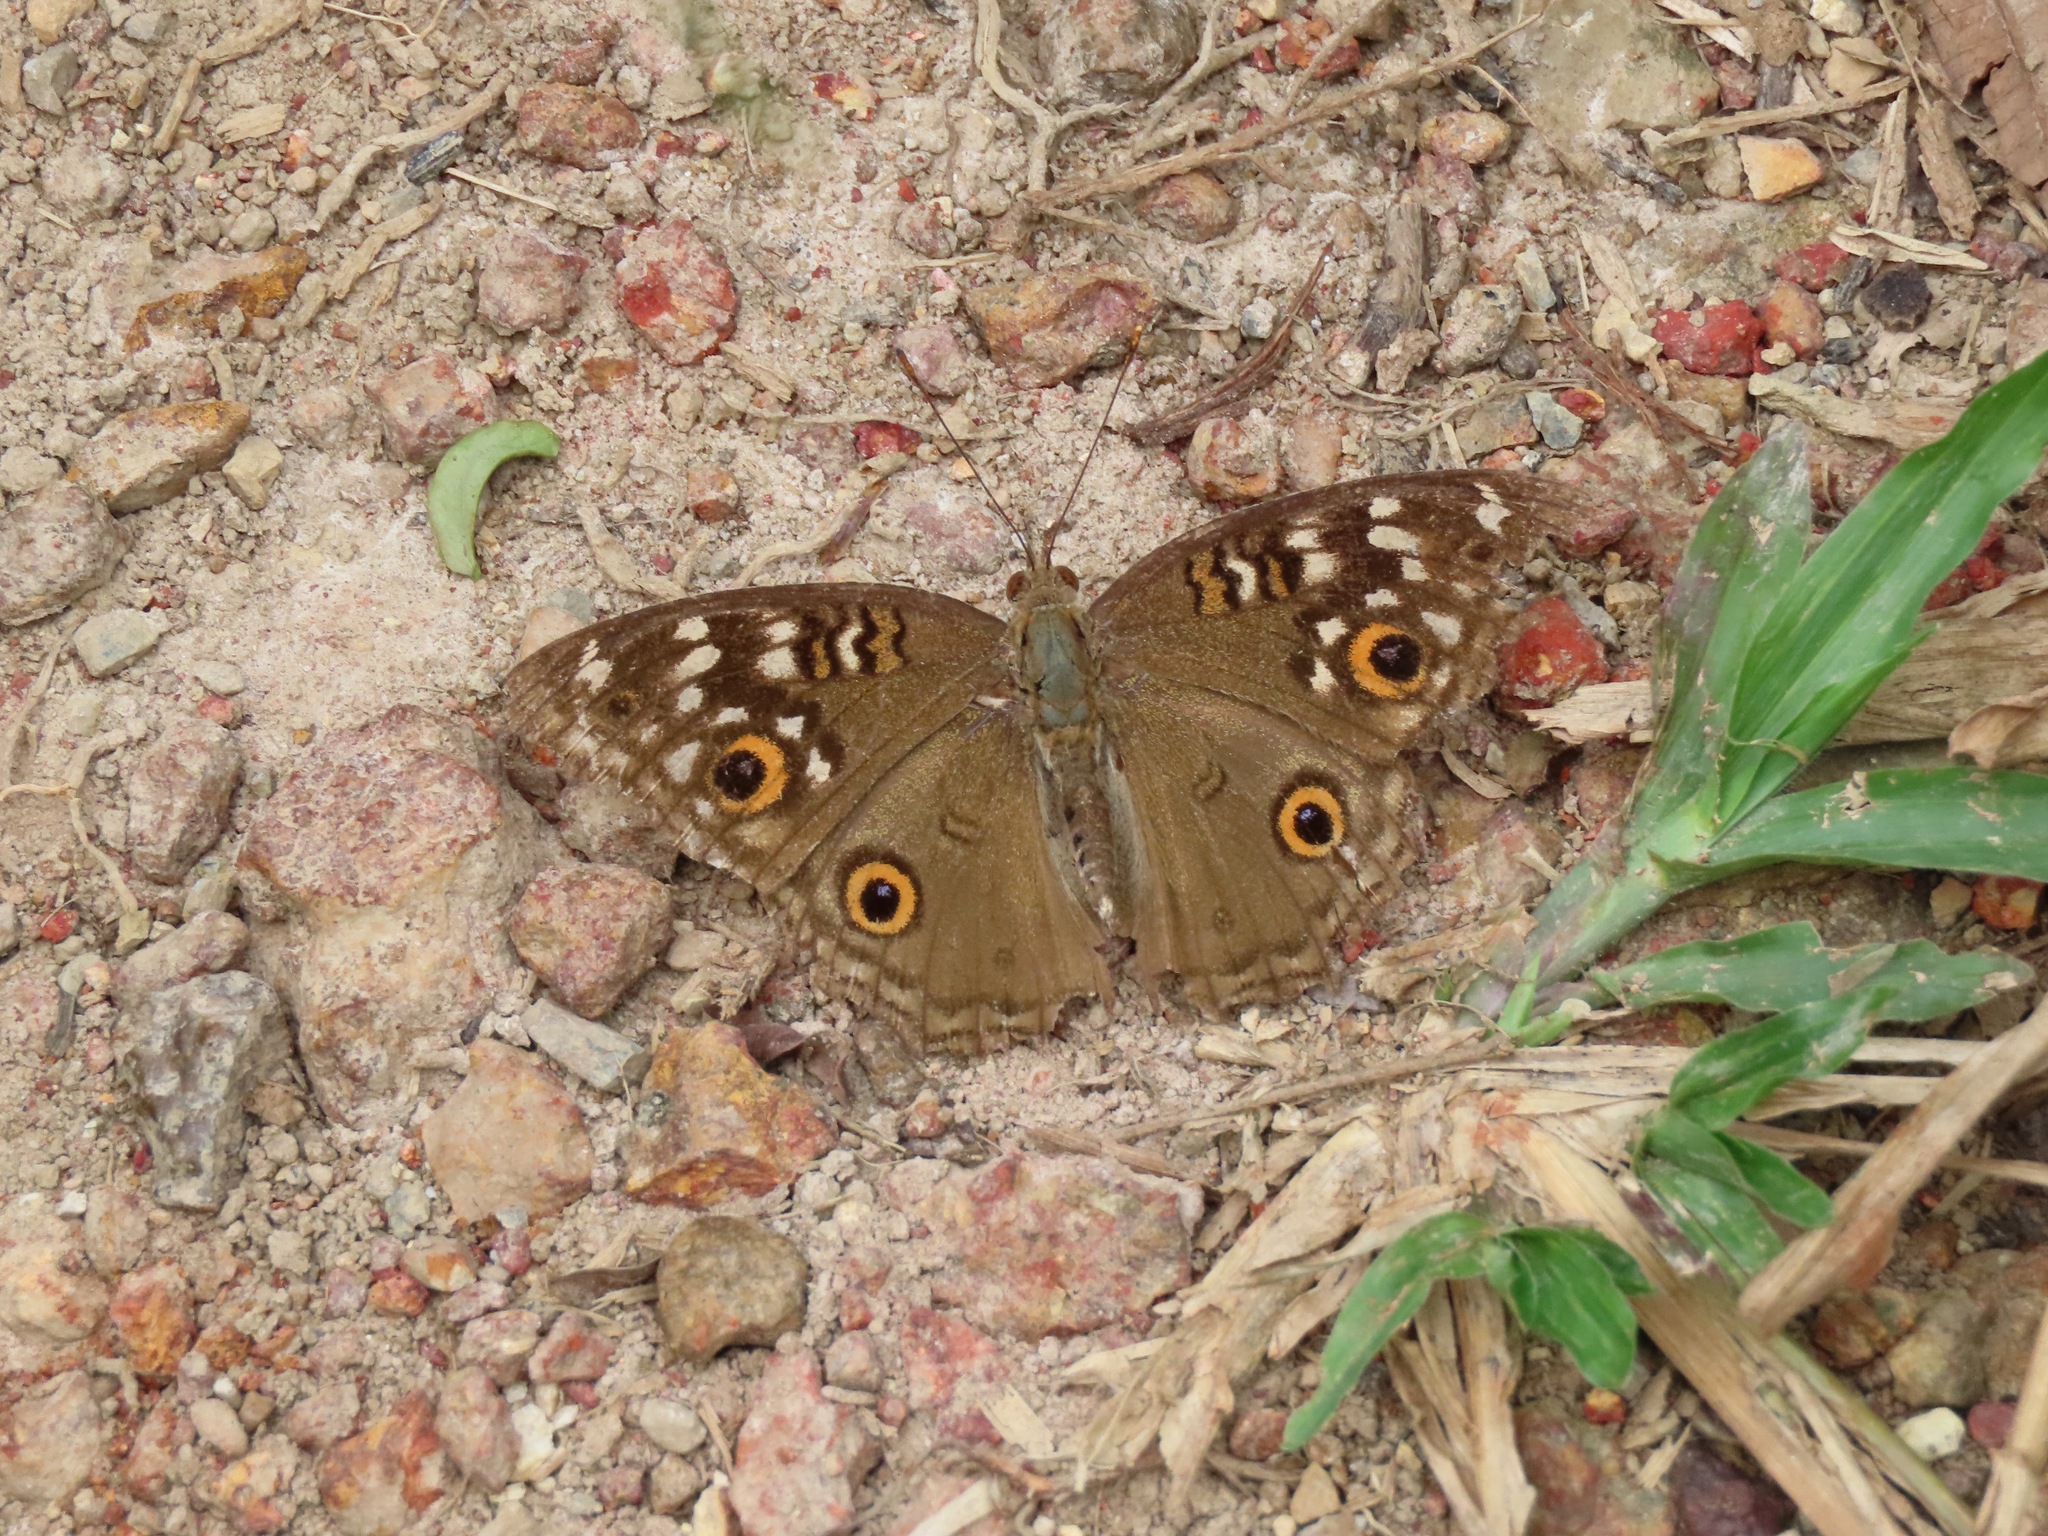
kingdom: Animalia
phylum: Arthropoda
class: Insecta
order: Lepidoptera
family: Nymphalidae
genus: Junonia
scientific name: Junonia lemonias
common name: Lemon pansy
